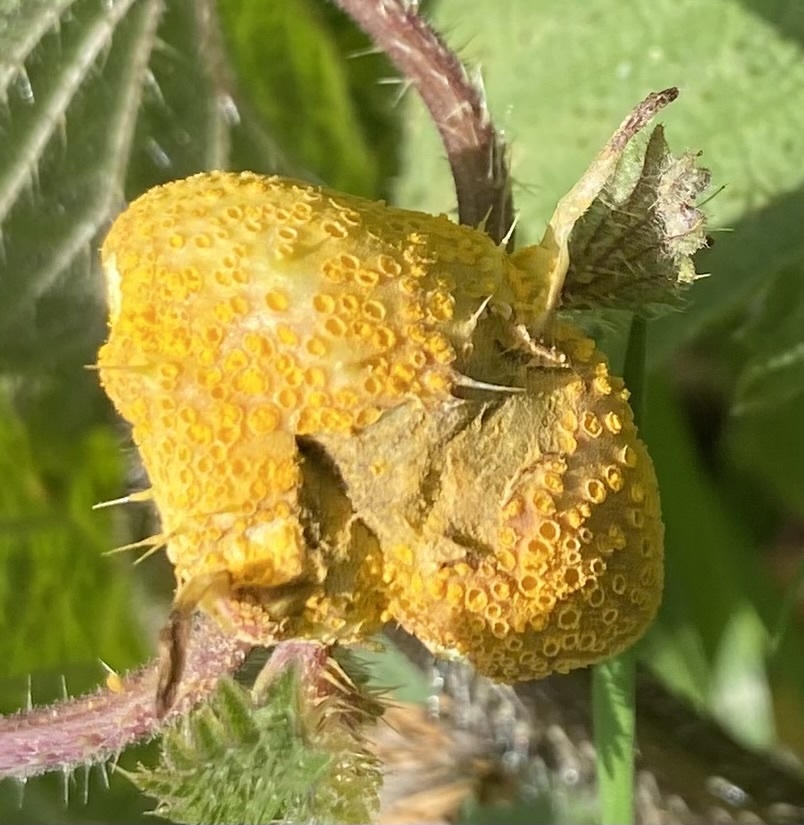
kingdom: Fungi
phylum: Basidiomycota
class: Pucciniomycetes
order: Pucciniales
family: Pucciniaceae
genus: Puccinia
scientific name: Puccinia urticata
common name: Nettle clustercup rust fungus
